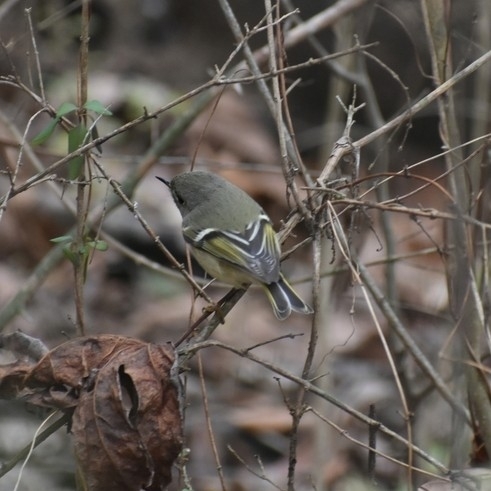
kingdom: Animalia
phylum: Chordata
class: Aves
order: Passeriformes
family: Regulidae
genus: Regulus
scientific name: Regulus calendula
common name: Ruby-crowned kinglet
